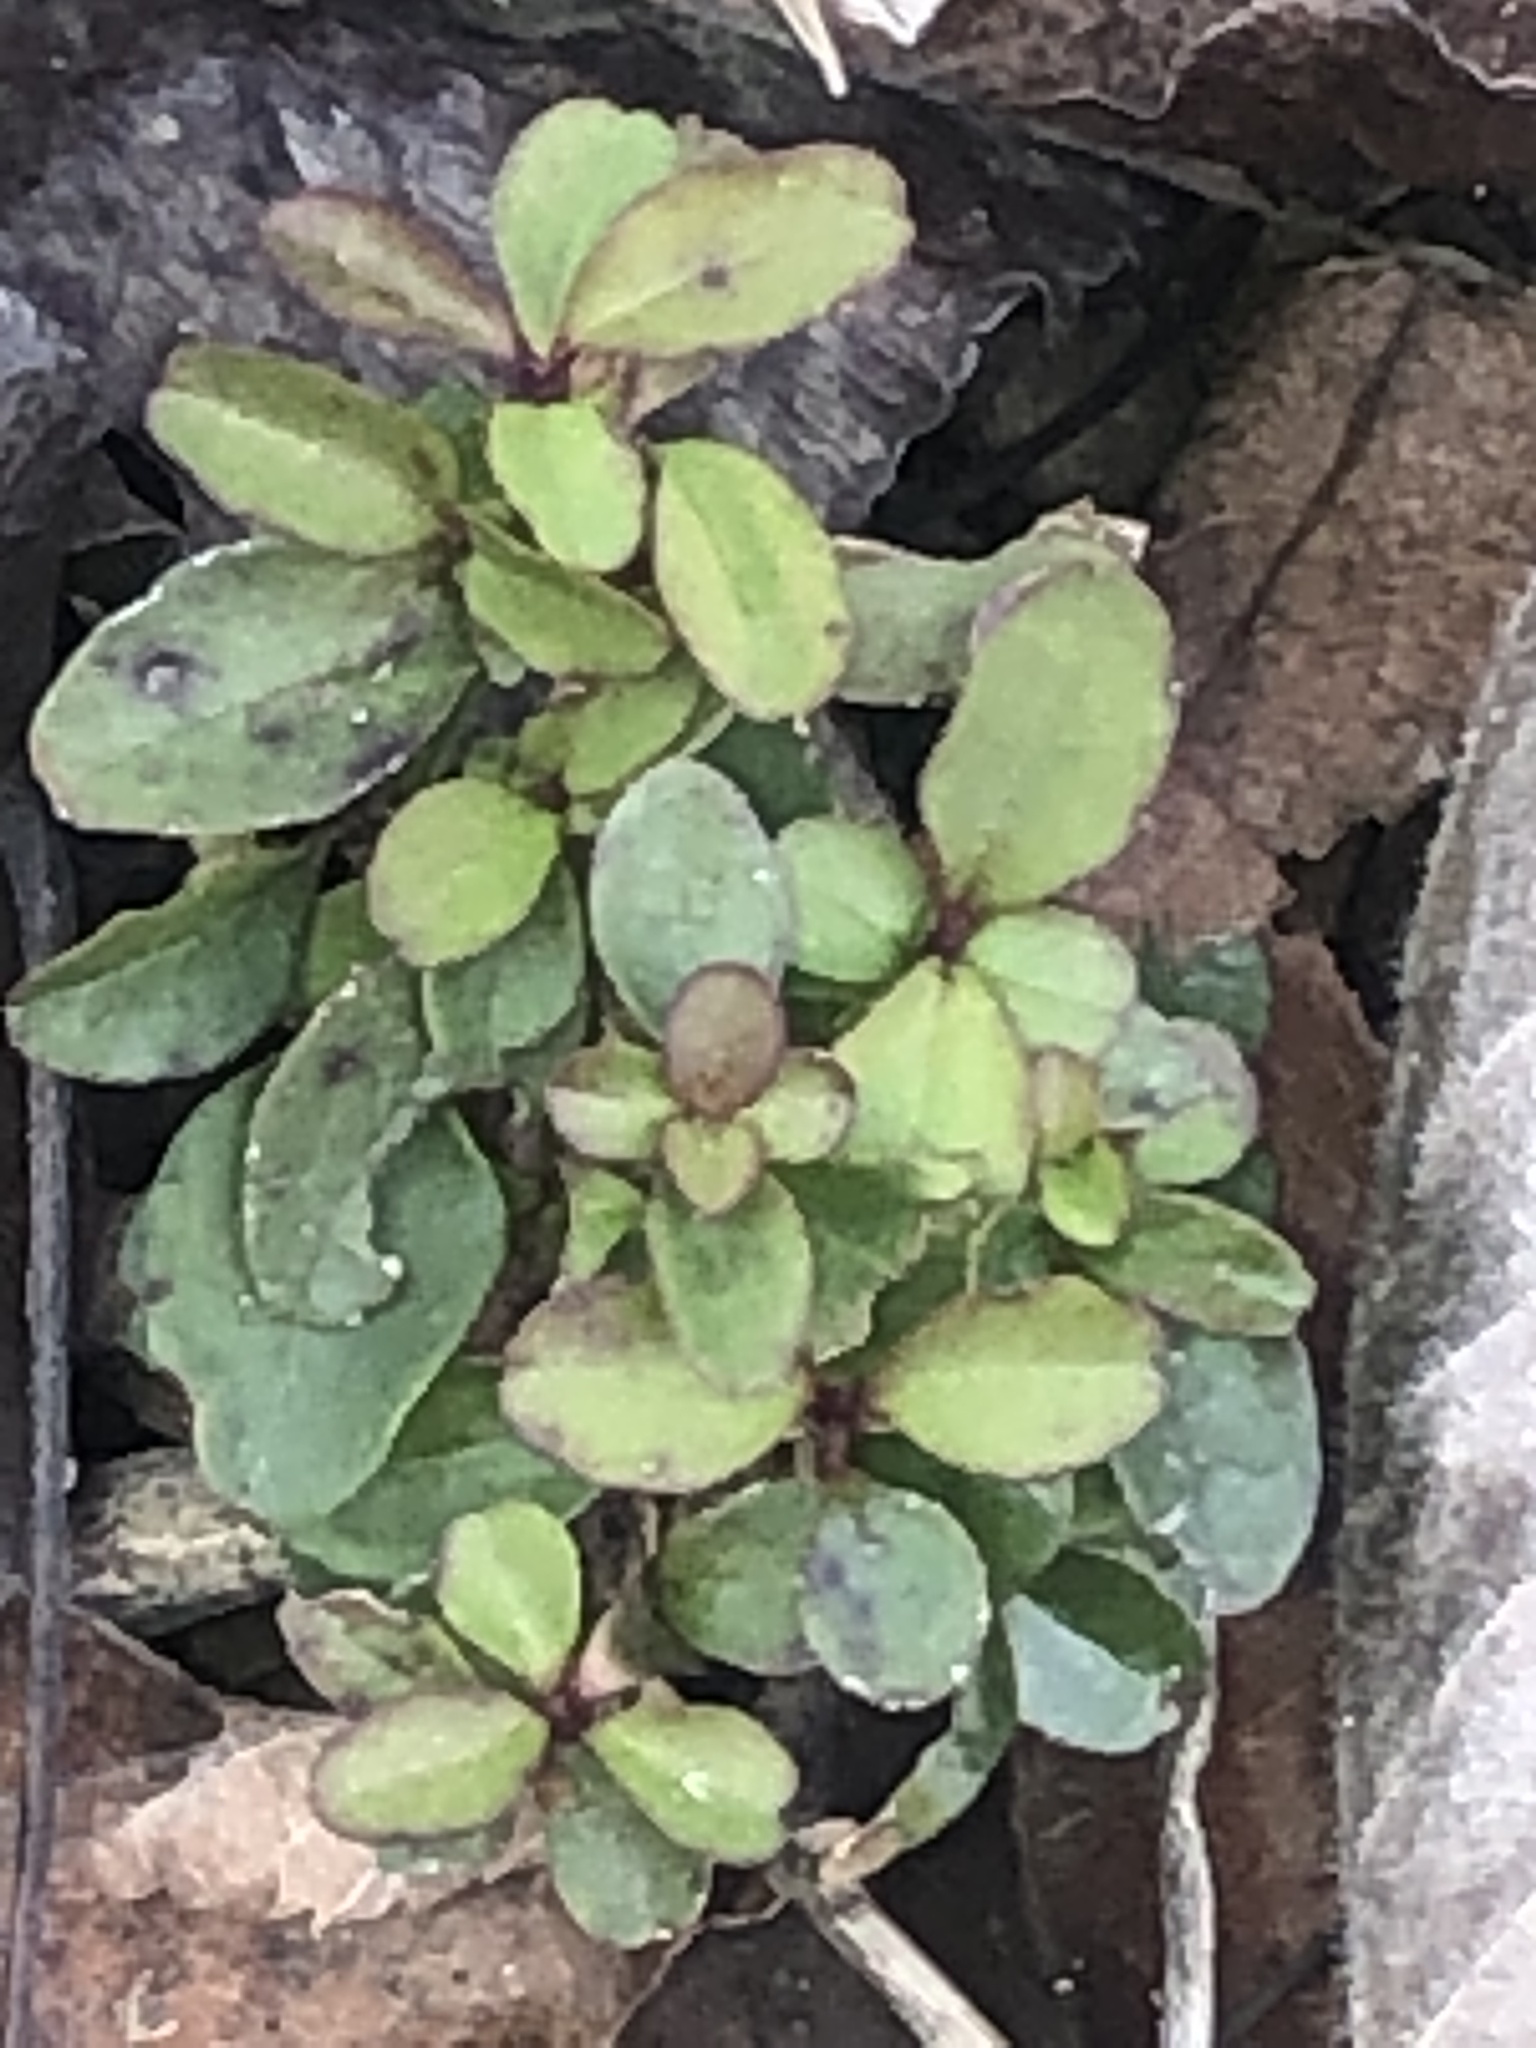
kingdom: Plantae
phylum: Tracheophyta
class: Magnoliopsida
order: Lamiales
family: Oleaceae
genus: Ligustrum
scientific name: Ligustrum sinense
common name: Chinese privet
